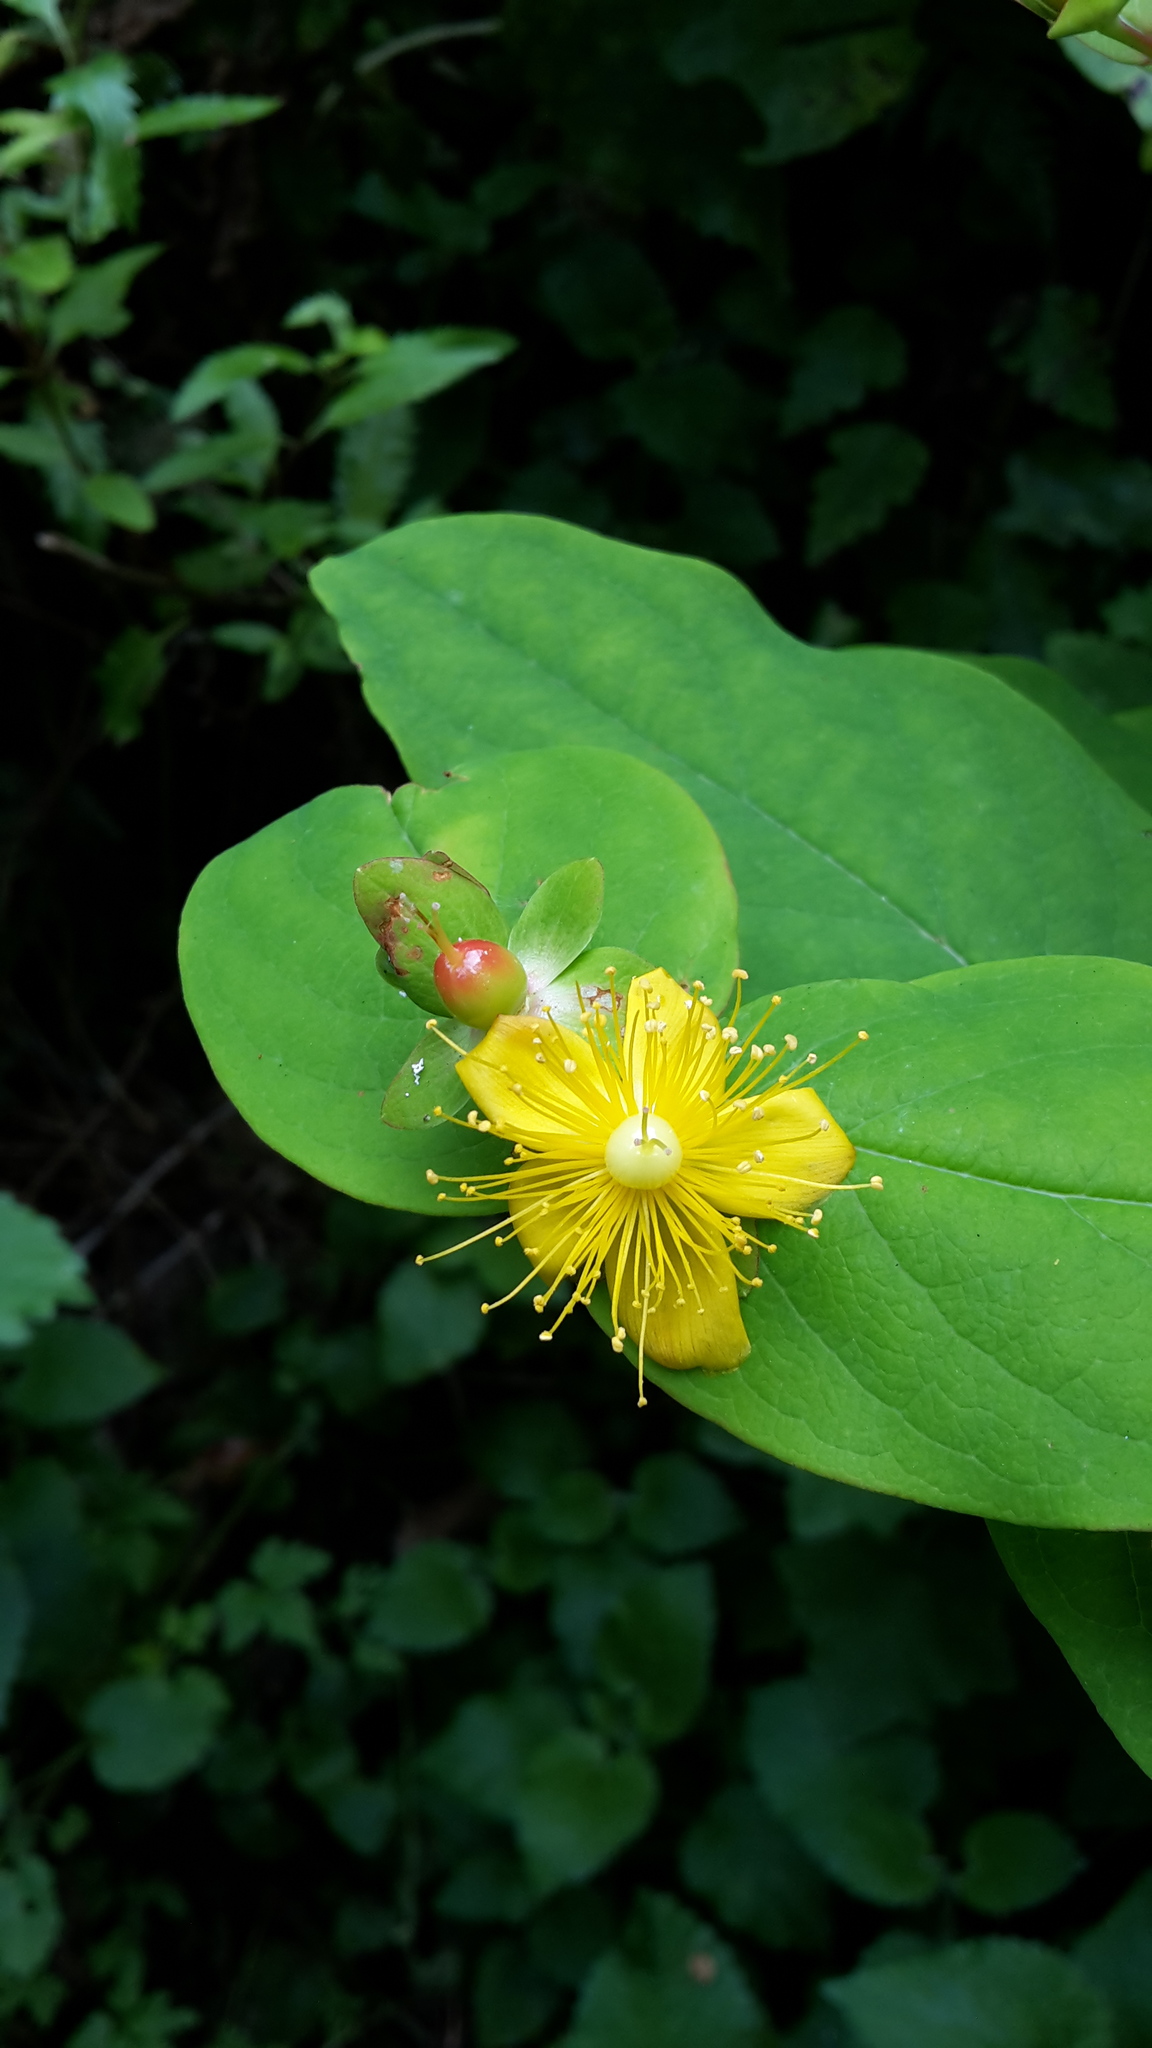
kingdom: Plantae
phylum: Tracheophyta
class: Magnoliopsida
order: Malpighiales
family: Hypericaceae
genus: Hypericum
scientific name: Hypericum androsaemum
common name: Sweet-amber
